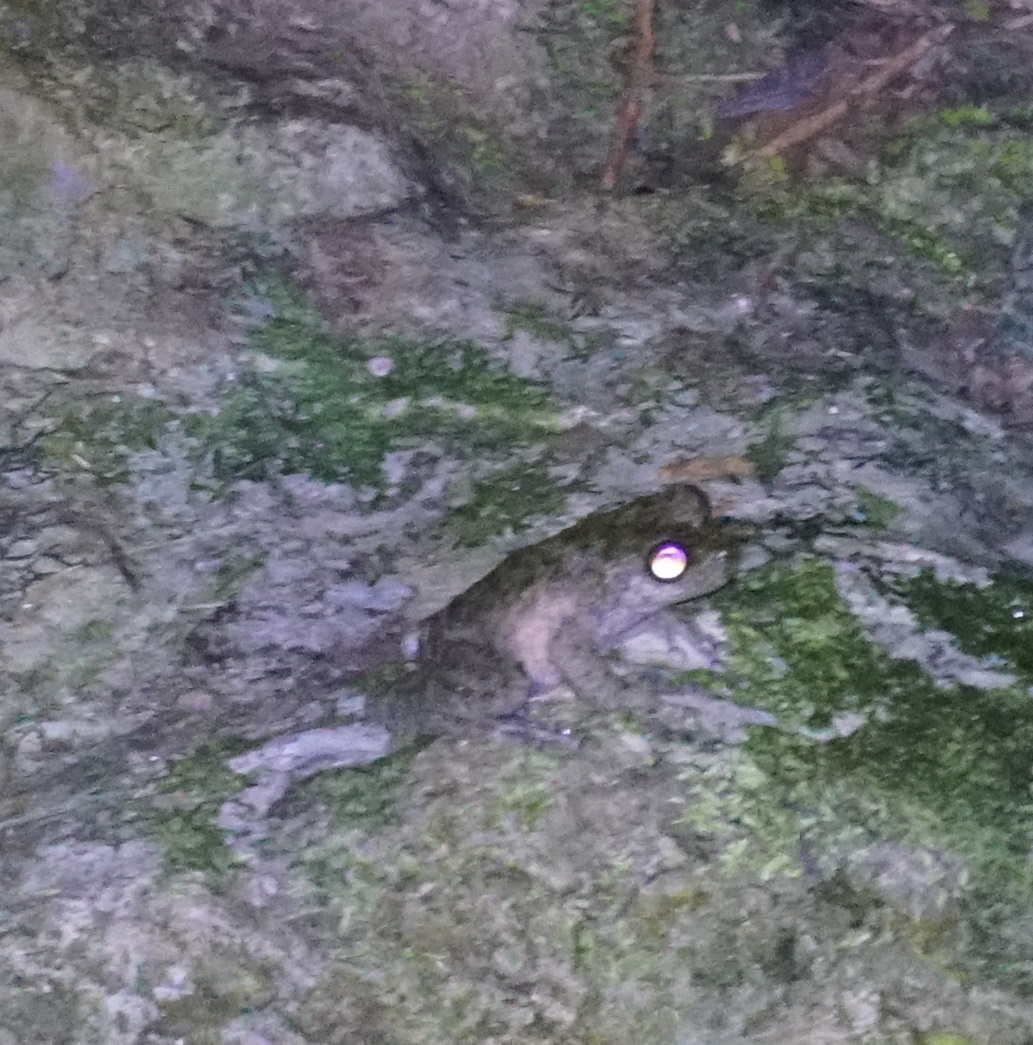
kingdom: Animalia
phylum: Chordata
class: Amphibia
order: Anura
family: Pelodryadidae
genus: Ranoidea
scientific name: Ranoidea nannotis
